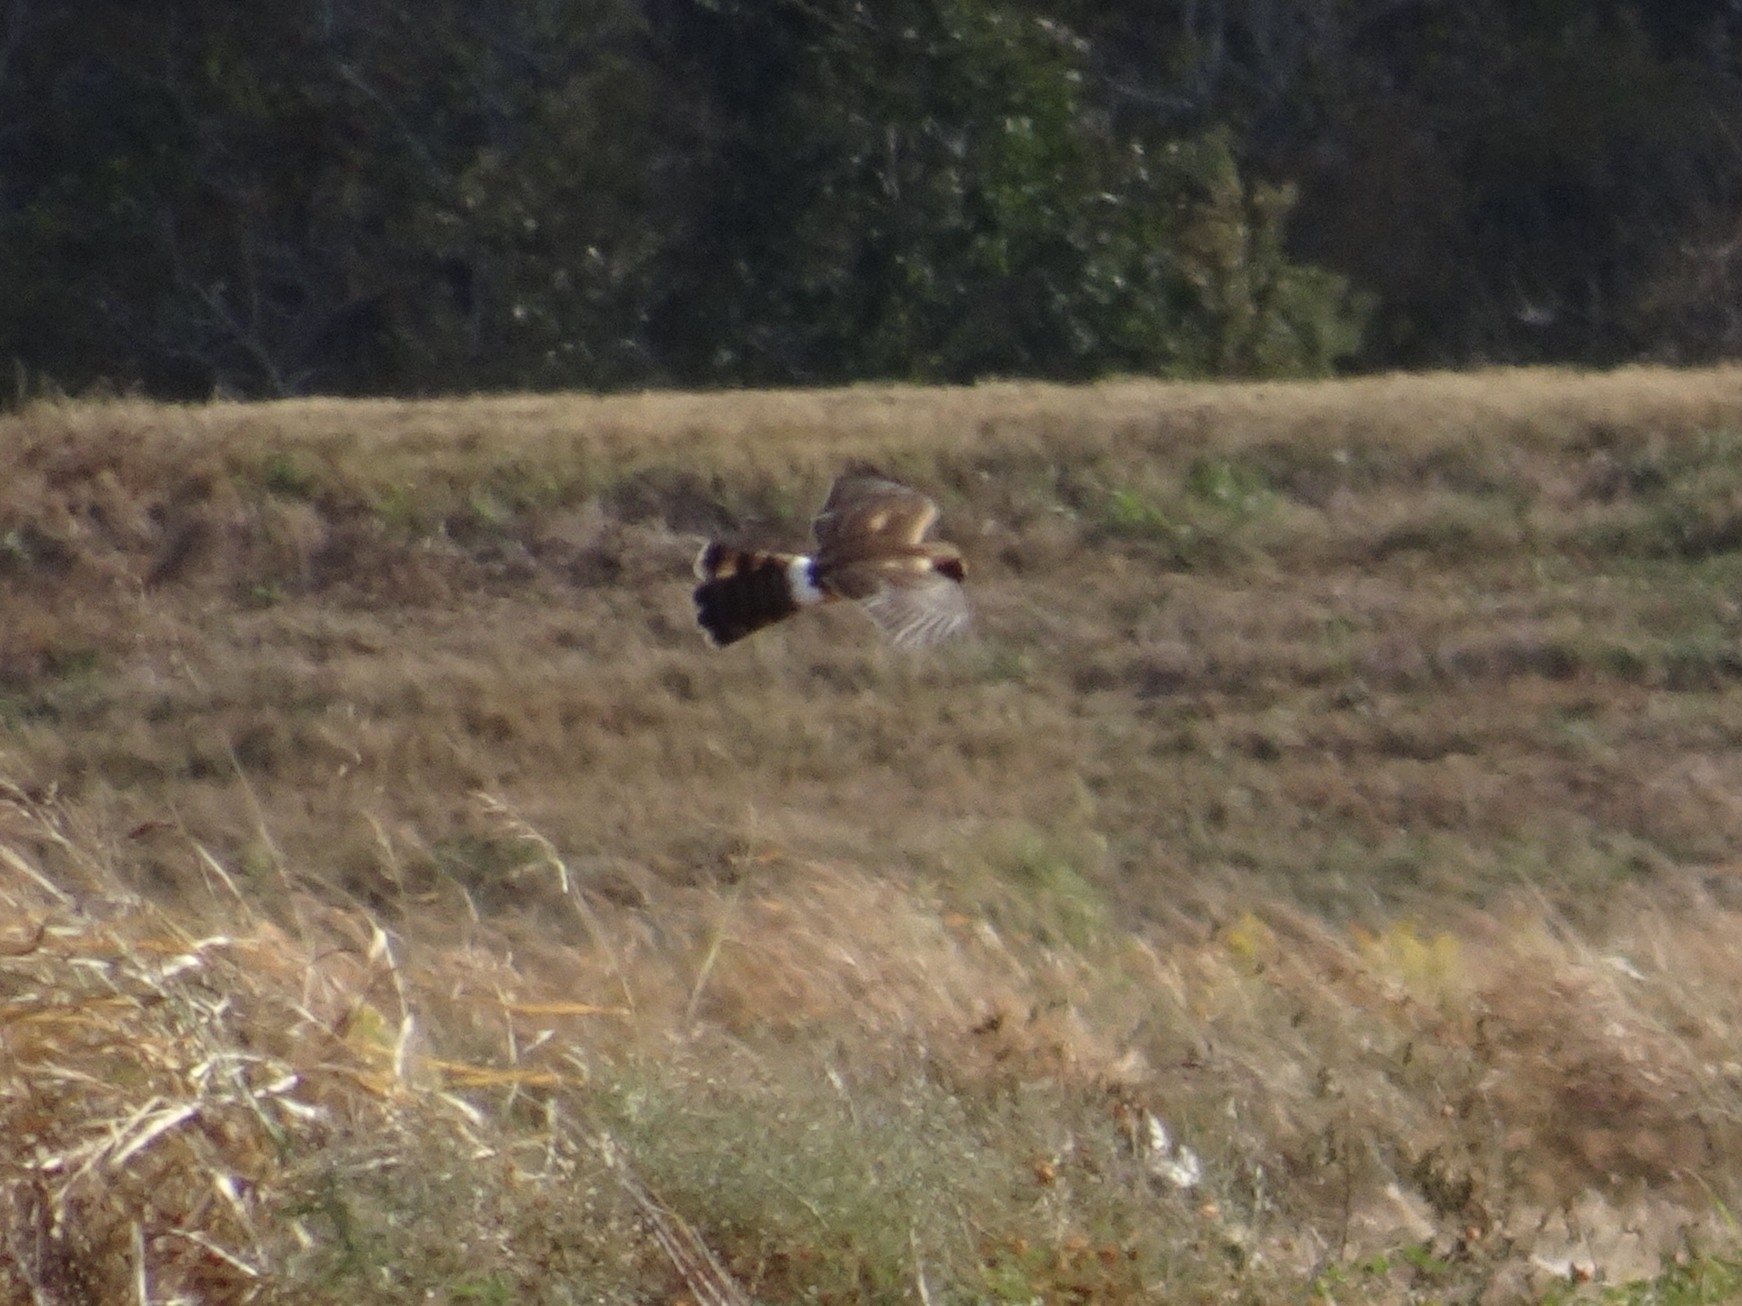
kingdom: Animalia
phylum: Chordata
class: Aves
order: Accipitriformes
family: Accipitridae
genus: Circus
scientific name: Circus cyaneus
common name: Hen harrier
